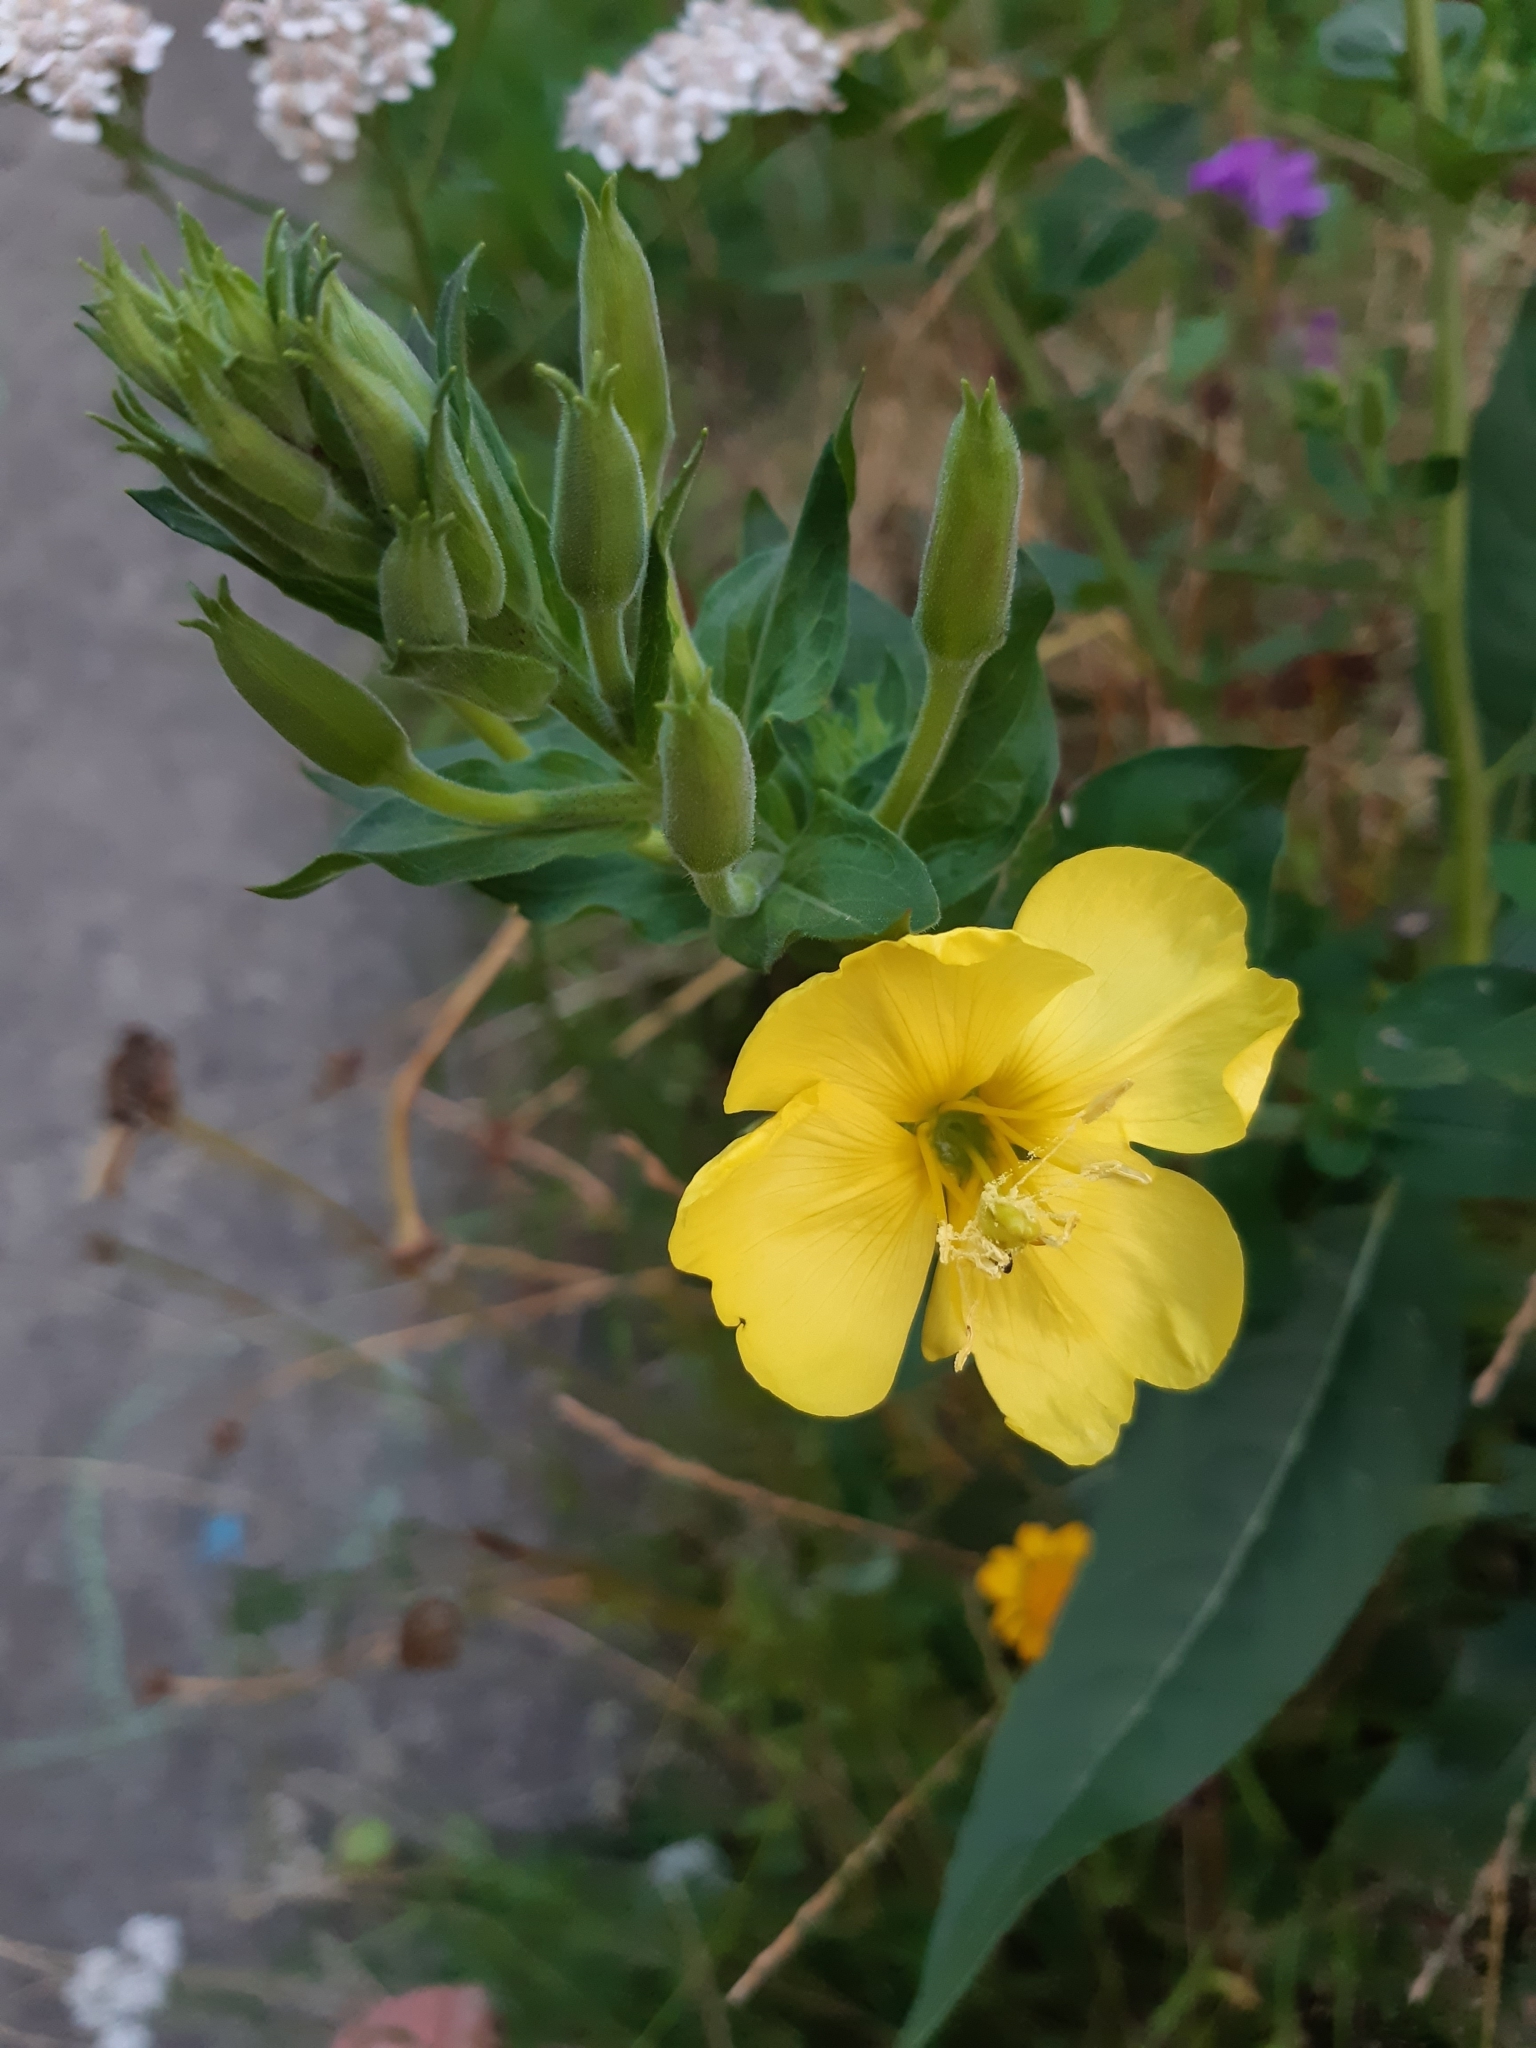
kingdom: Plantae
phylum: Tracheophyta
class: Magnoliopsida
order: Myrtales
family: Onagraceae
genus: Oenothera
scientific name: Oenothera biennis
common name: Common evening-primrose
